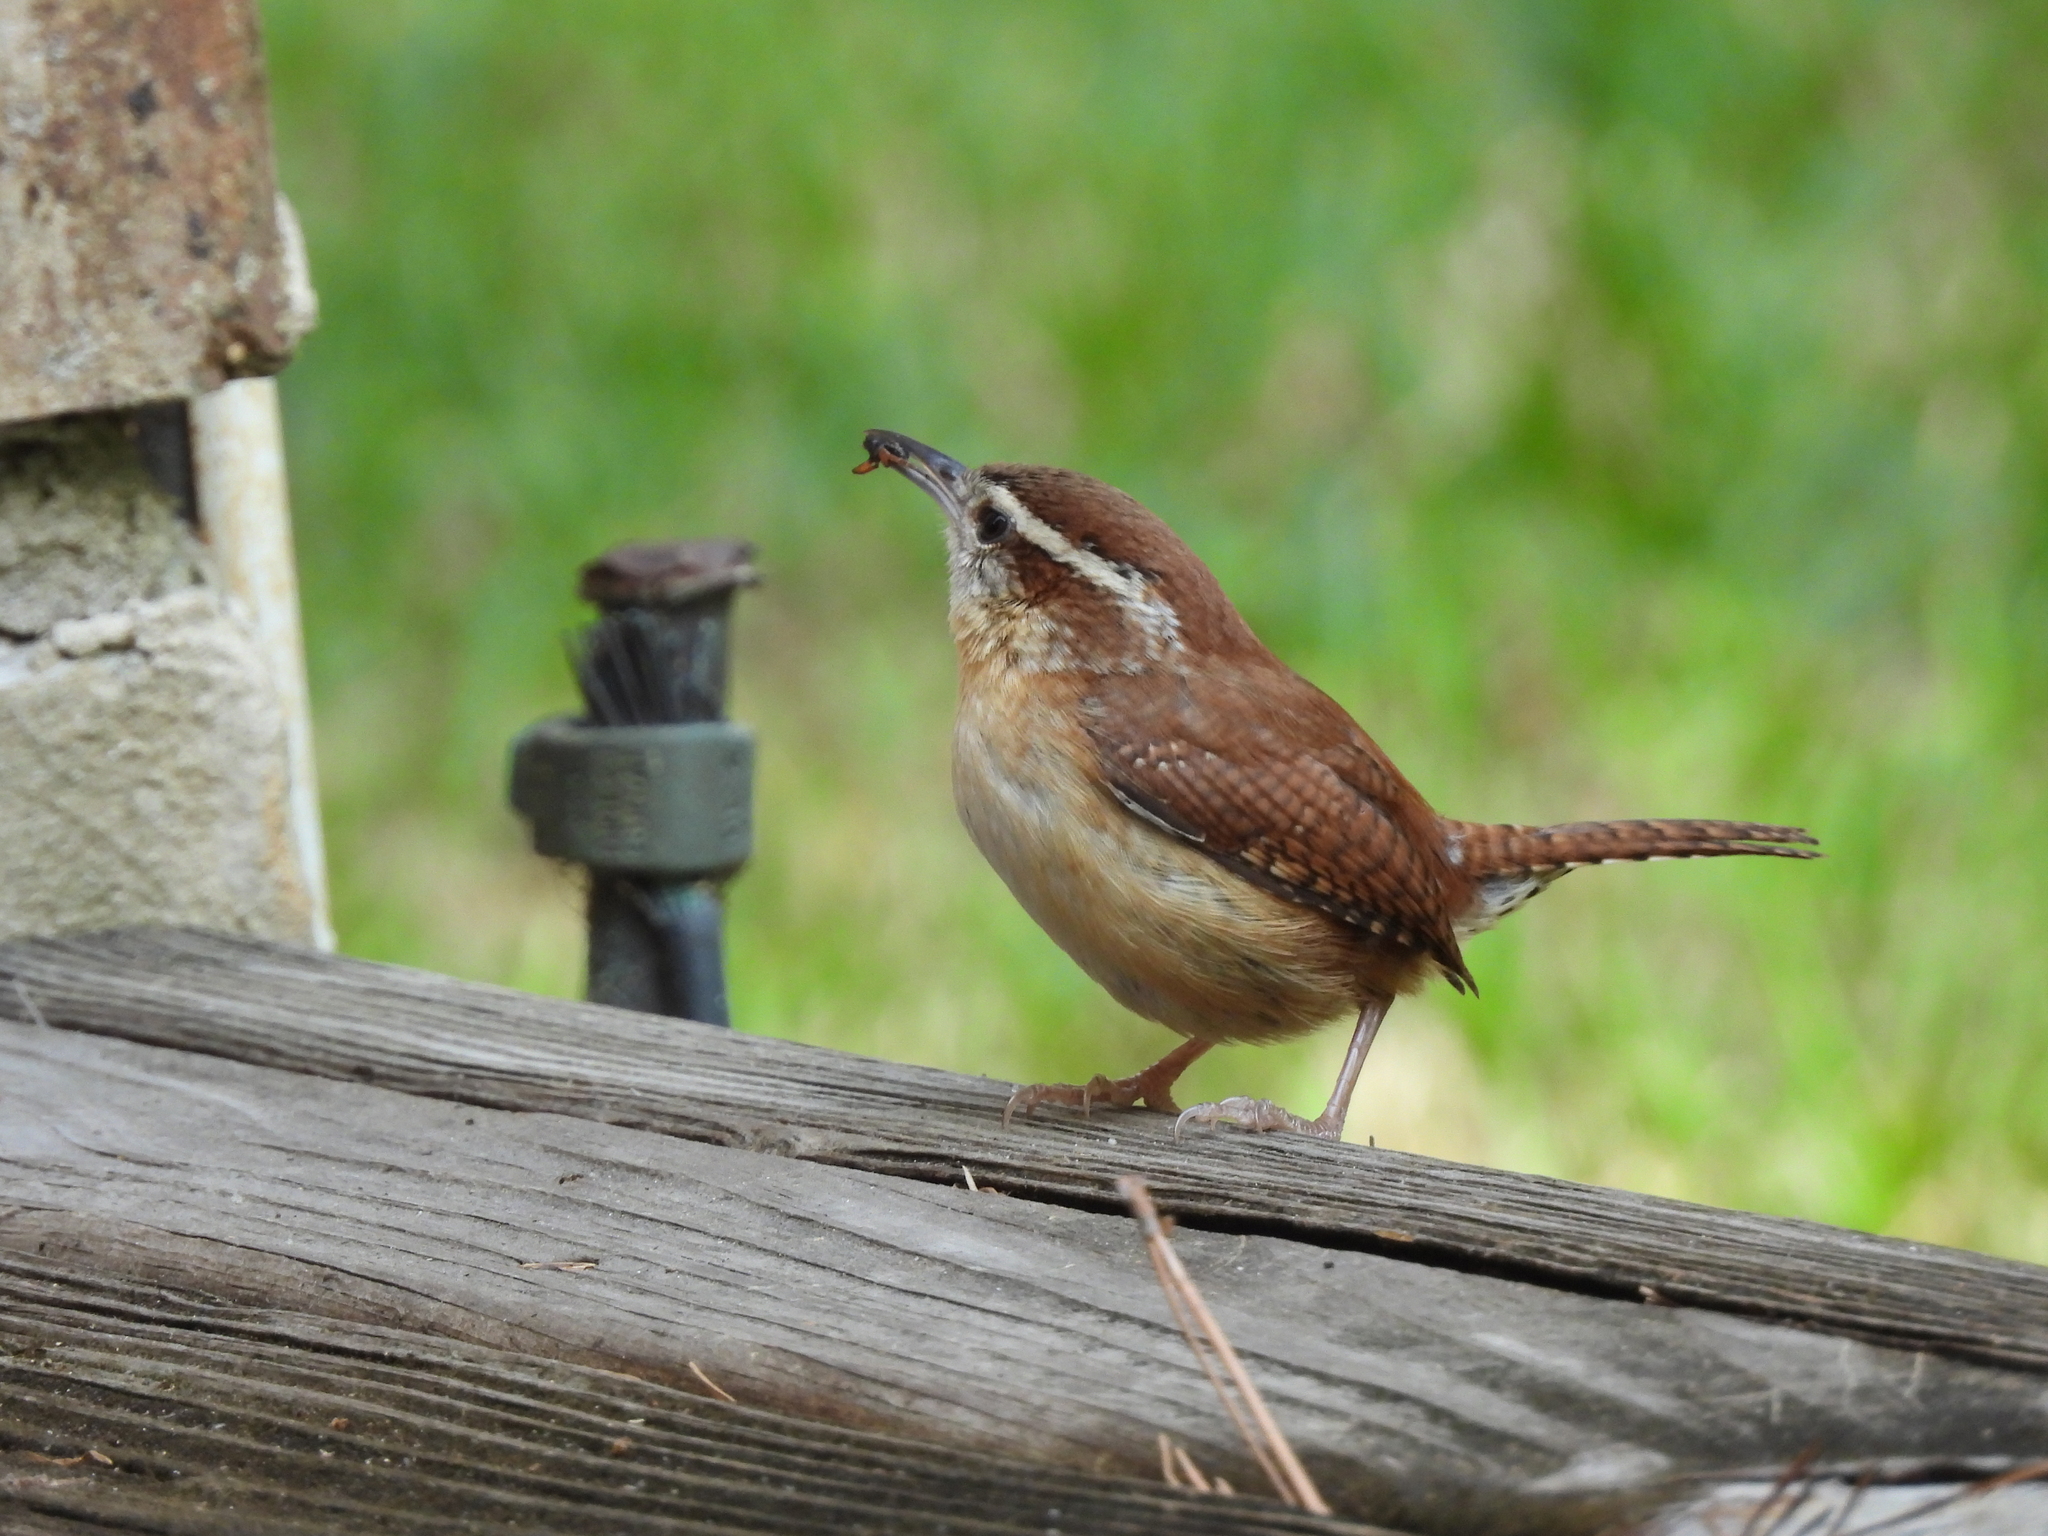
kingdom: Animalia
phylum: Chordata
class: Aves
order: Passeriformes
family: Troglodytidae
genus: Thryothorus
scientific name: Thryothorus ludovicianus
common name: Carolina wren
